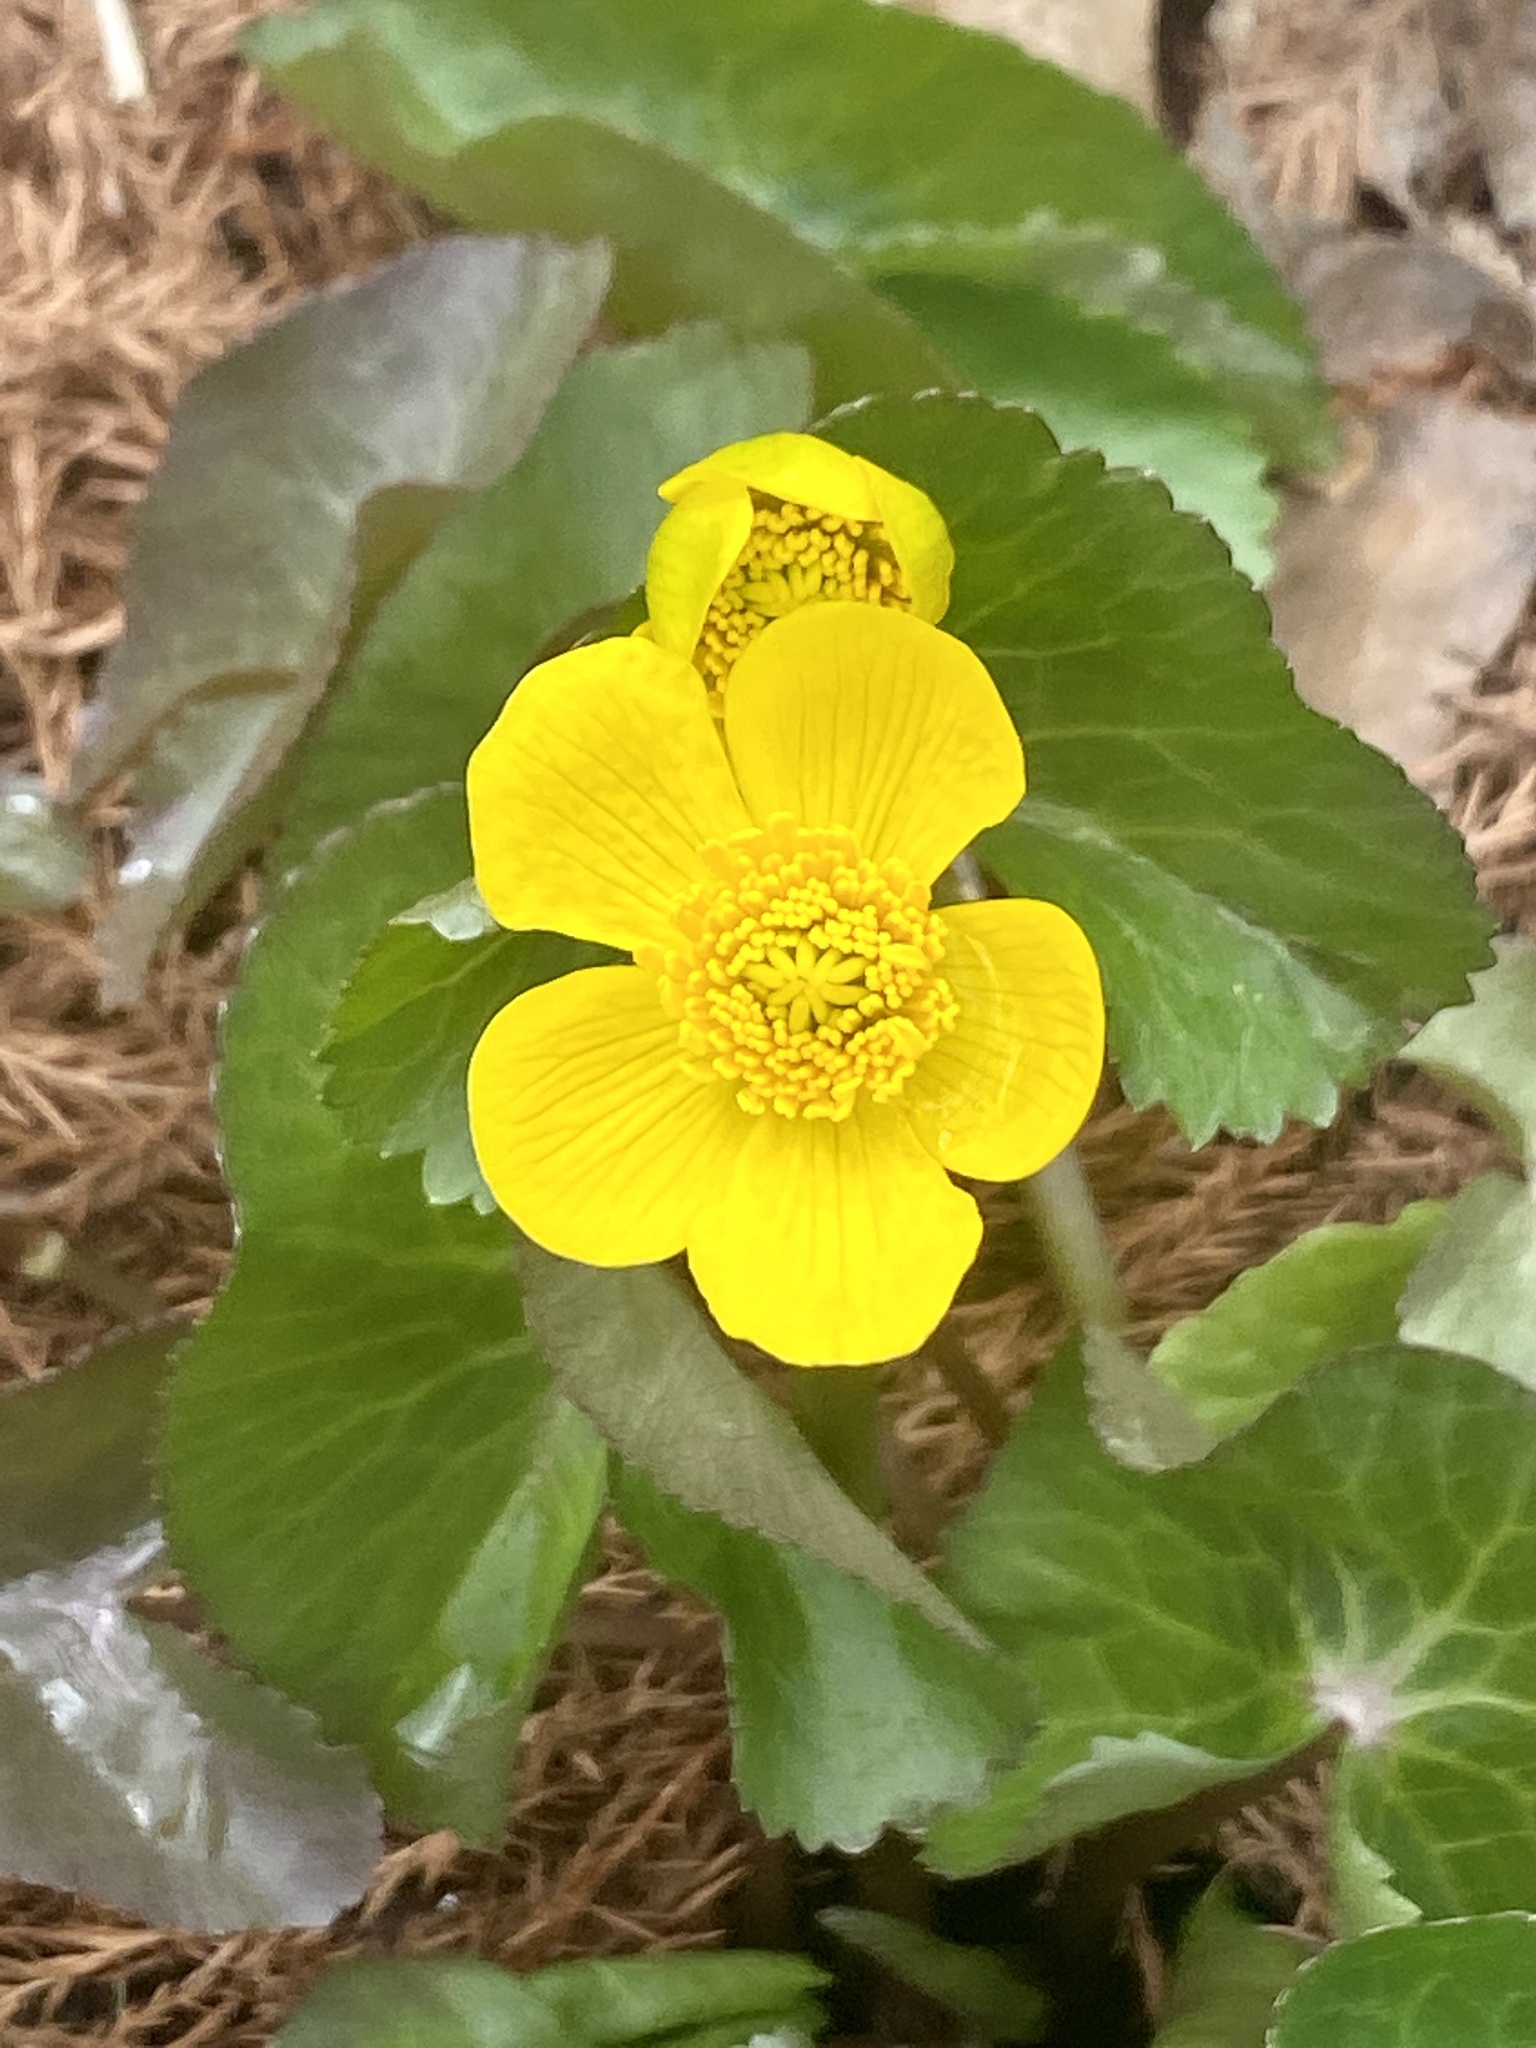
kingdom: Plantae
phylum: Tracheophyta
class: Magnoliopsida
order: Ranunculales
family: Ranunculaceae
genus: Caltha
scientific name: Caltha palustris
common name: Marsh marigold
